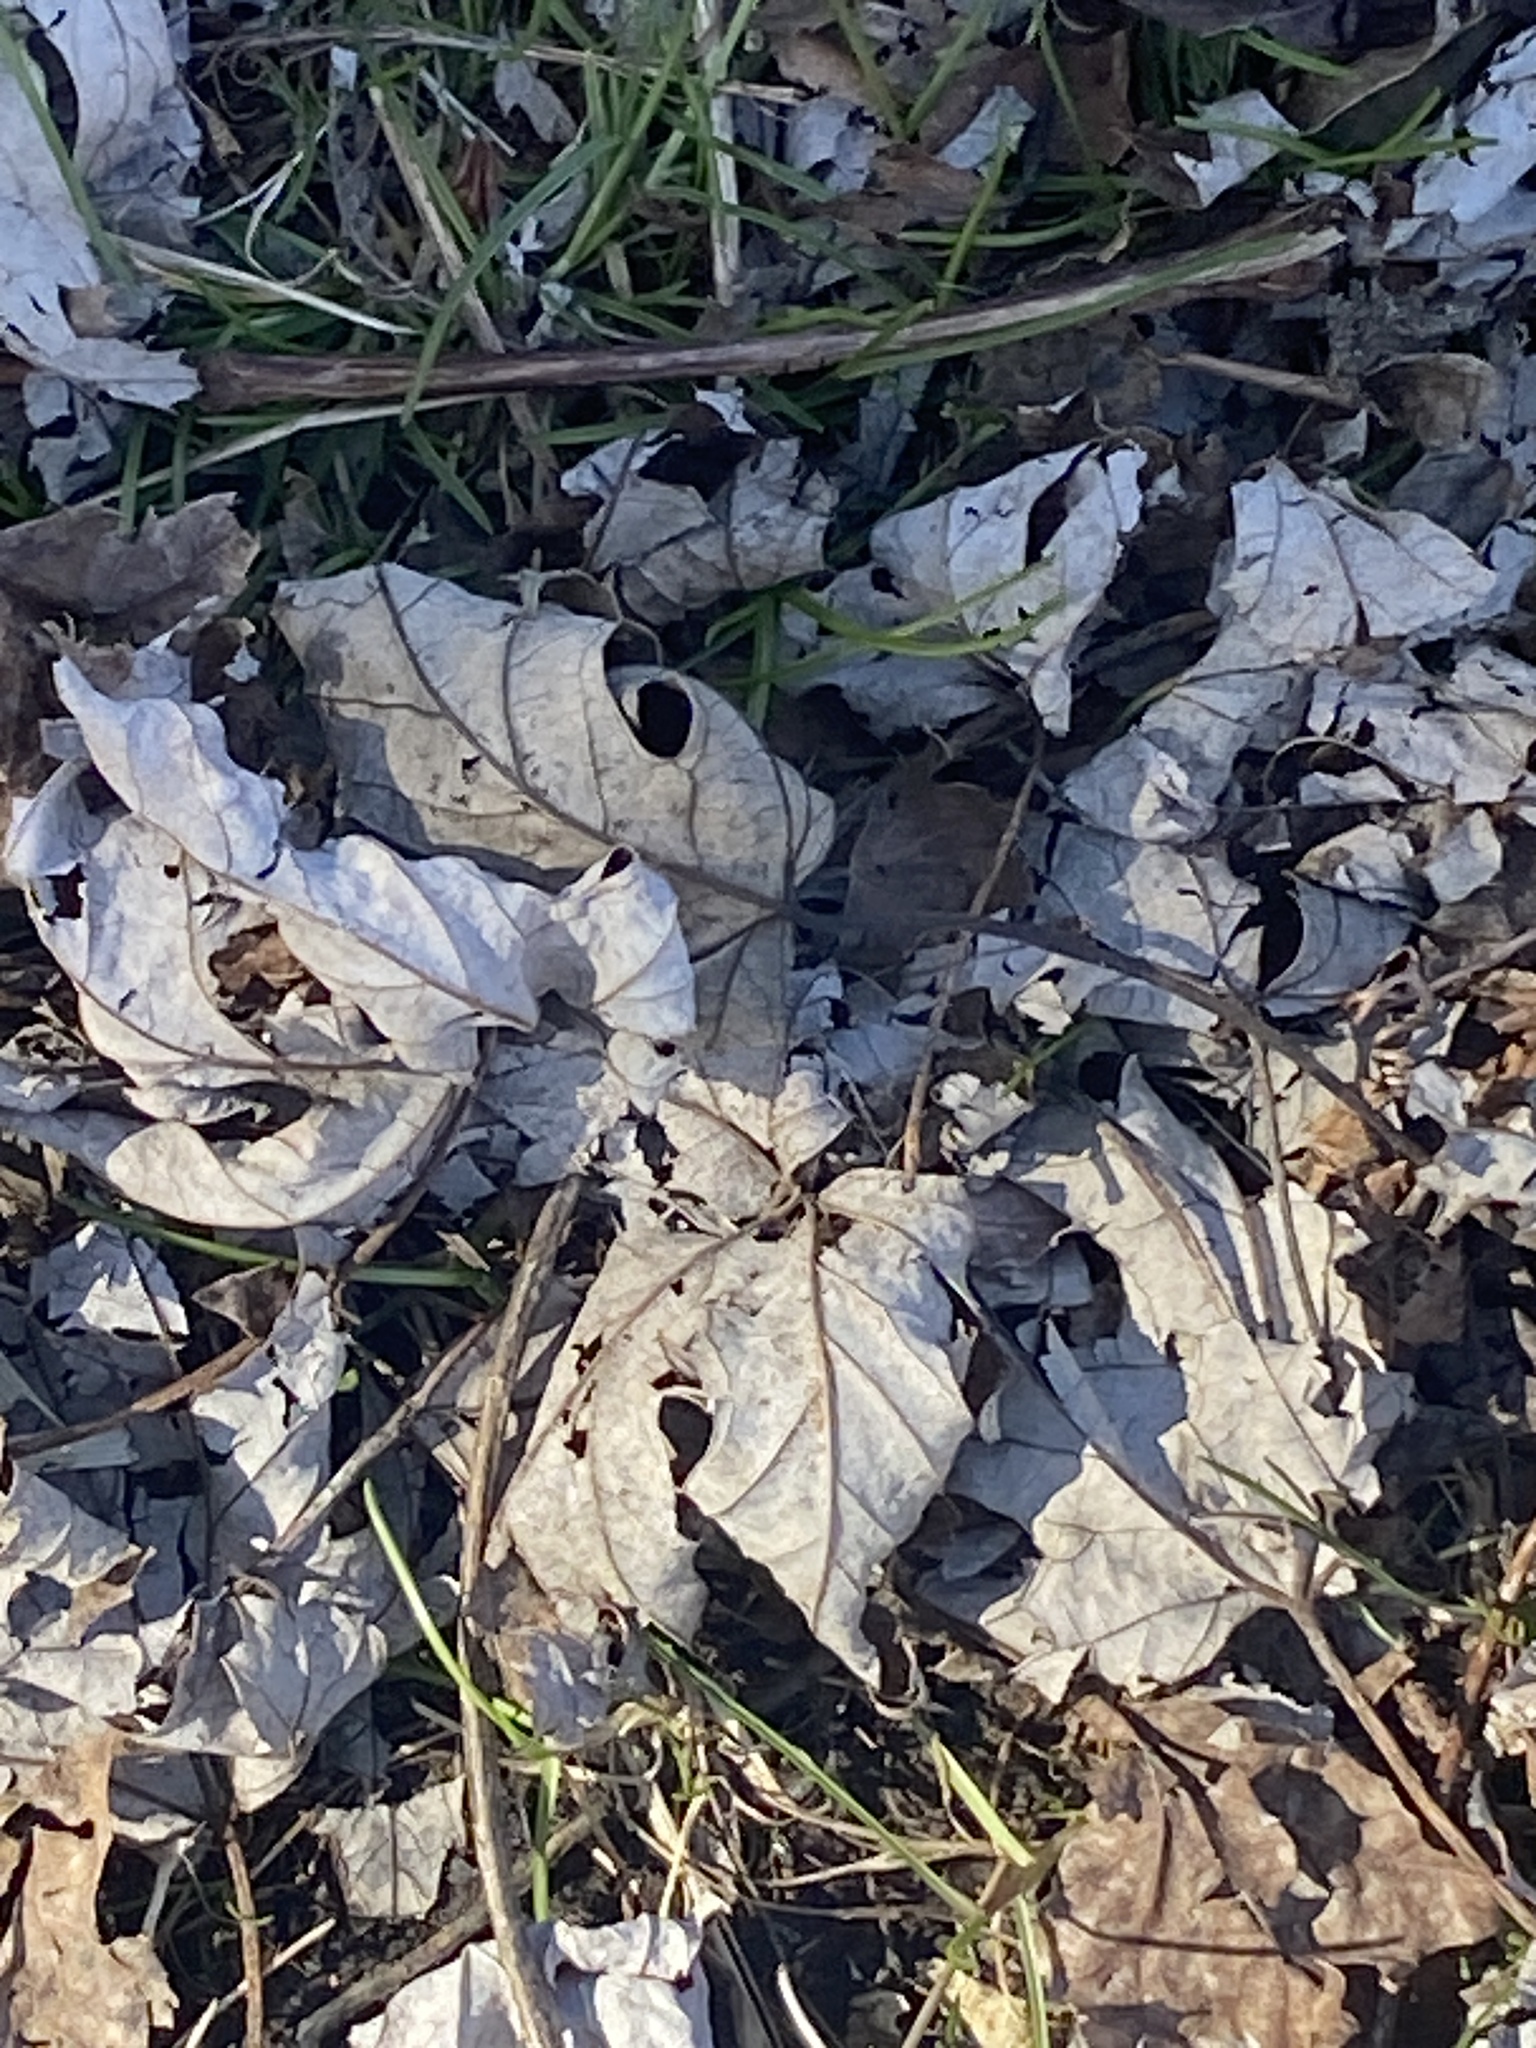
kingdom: Plantae
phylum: Tracheophyta
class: Magnoliopsida
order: Sapindales
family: Sapindaceae
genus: Acer
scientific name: Acer saccharinum
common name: Silver maple
